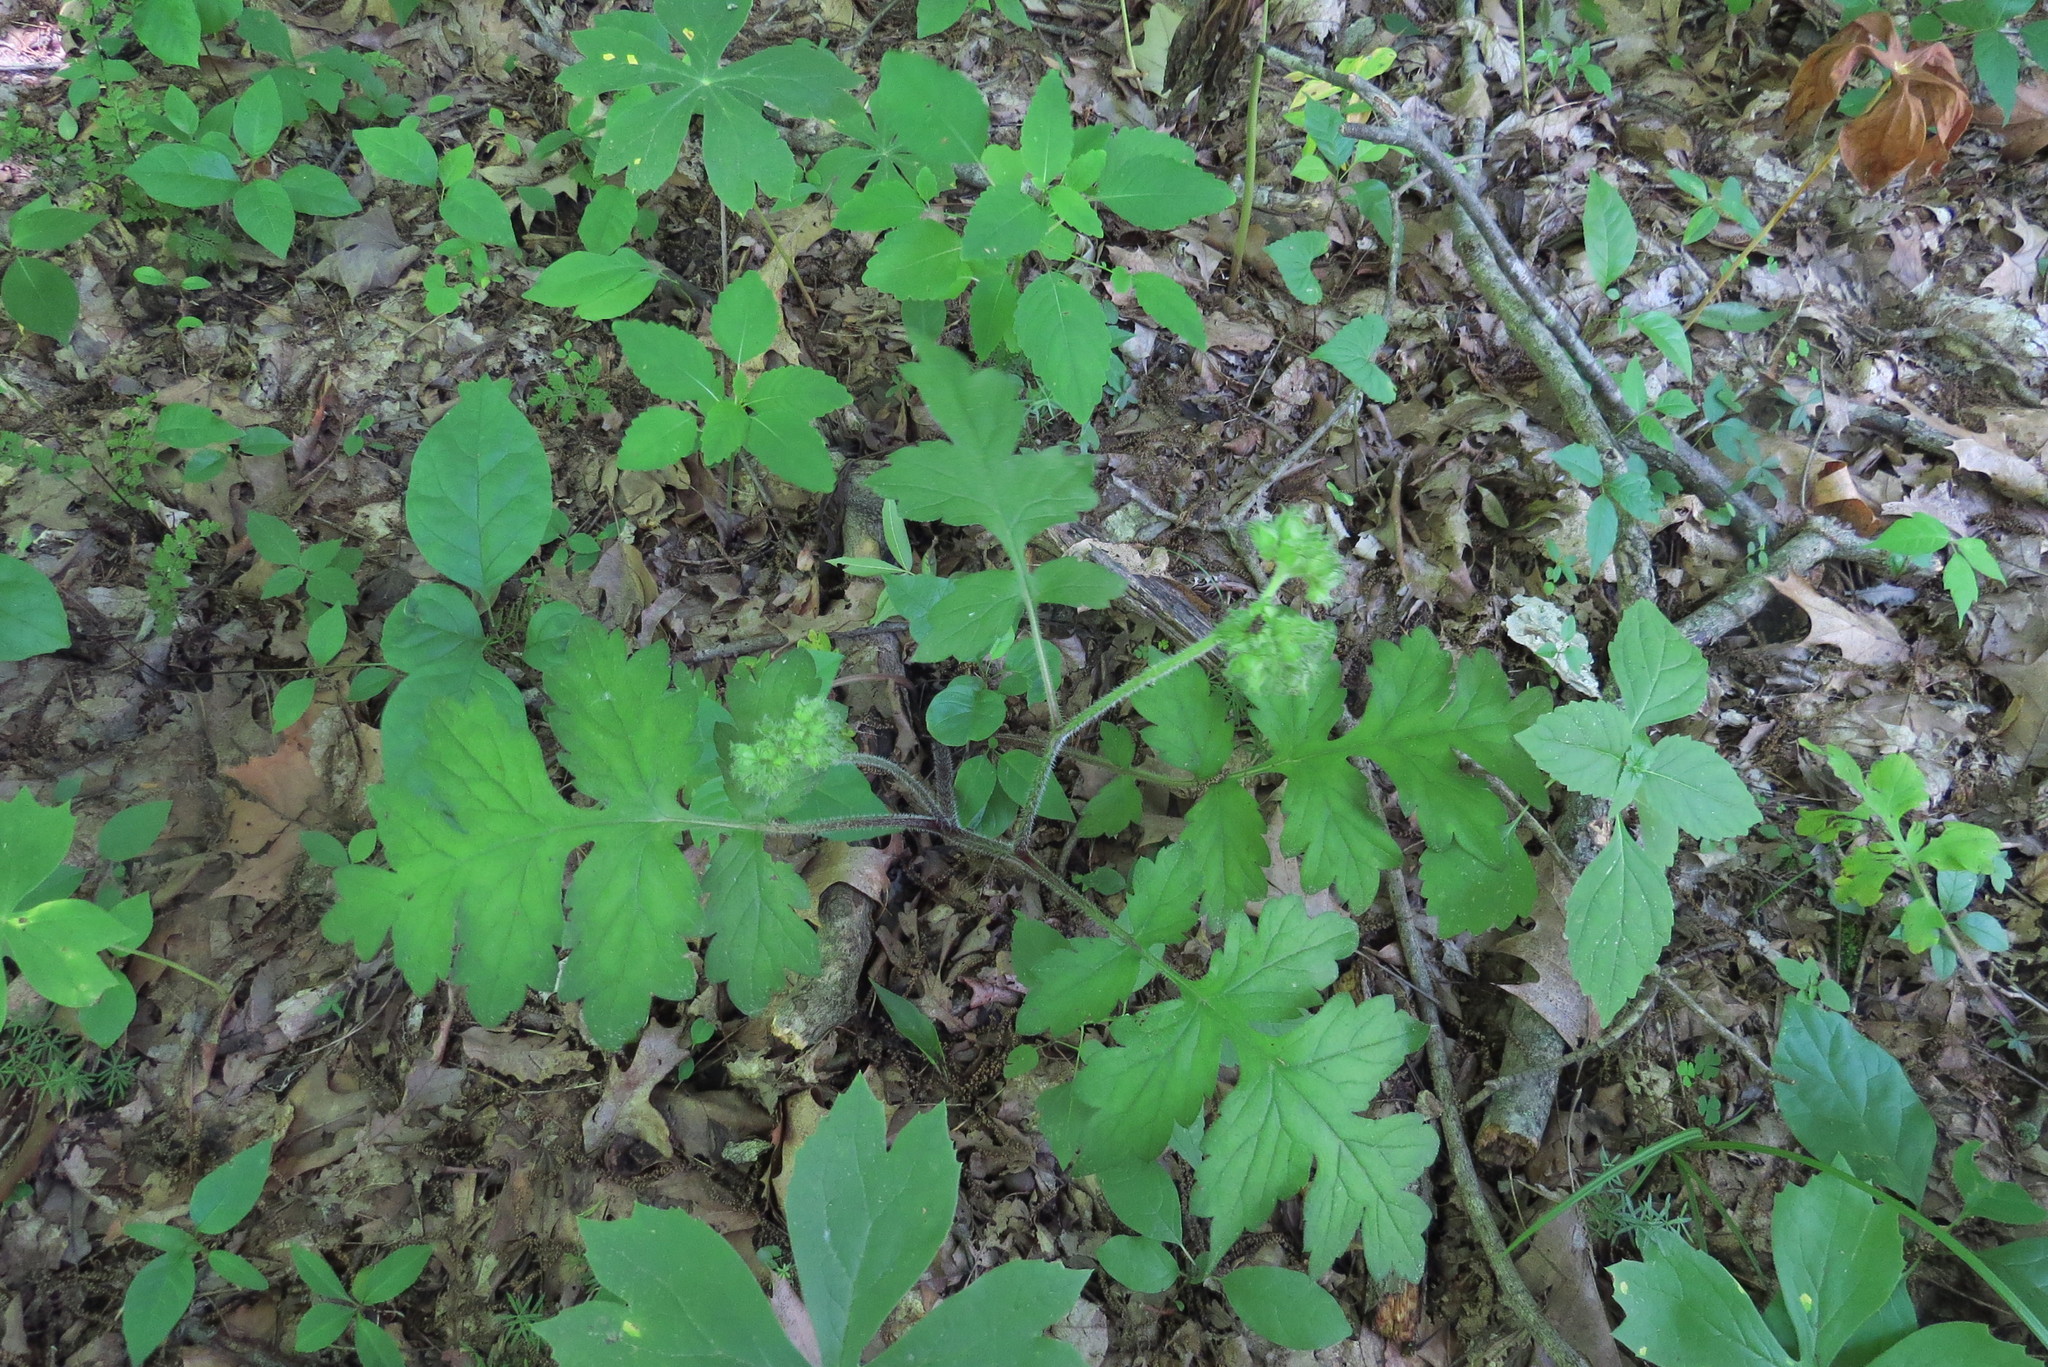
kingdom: Plantae
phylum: Tracheophyta
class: Magnoliopsida
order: Asterales
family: Asteraceae
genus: Polymnia
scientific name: Polymnia canadensis
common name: Pale-flowered leafcup
